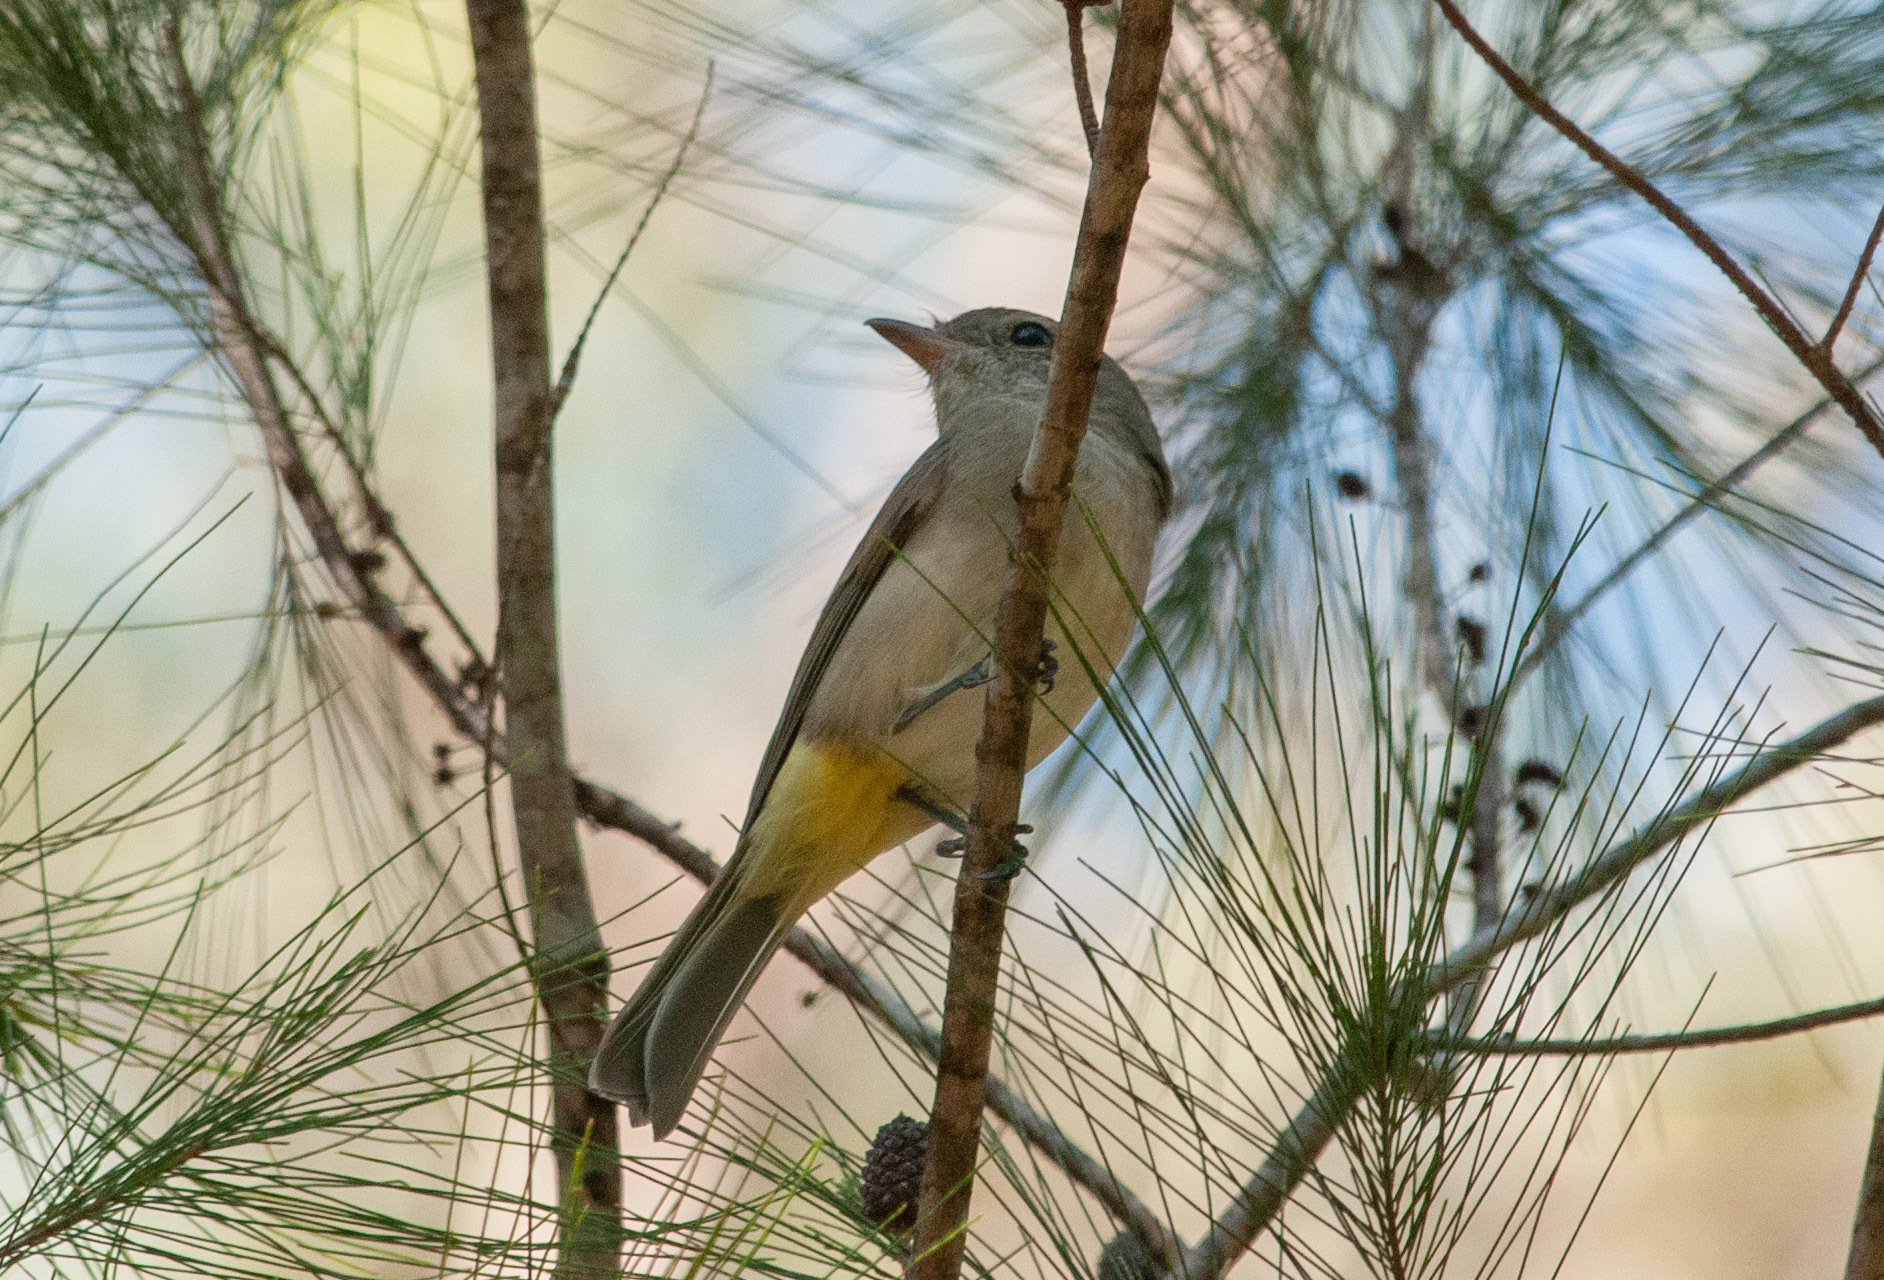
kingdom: Animalia
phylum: Chordata
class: Aves
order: Passeriformes
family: Pachycephalidae
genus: Pachycephala
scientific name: Pachycephala pectoralis
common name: Australian golden whistler
